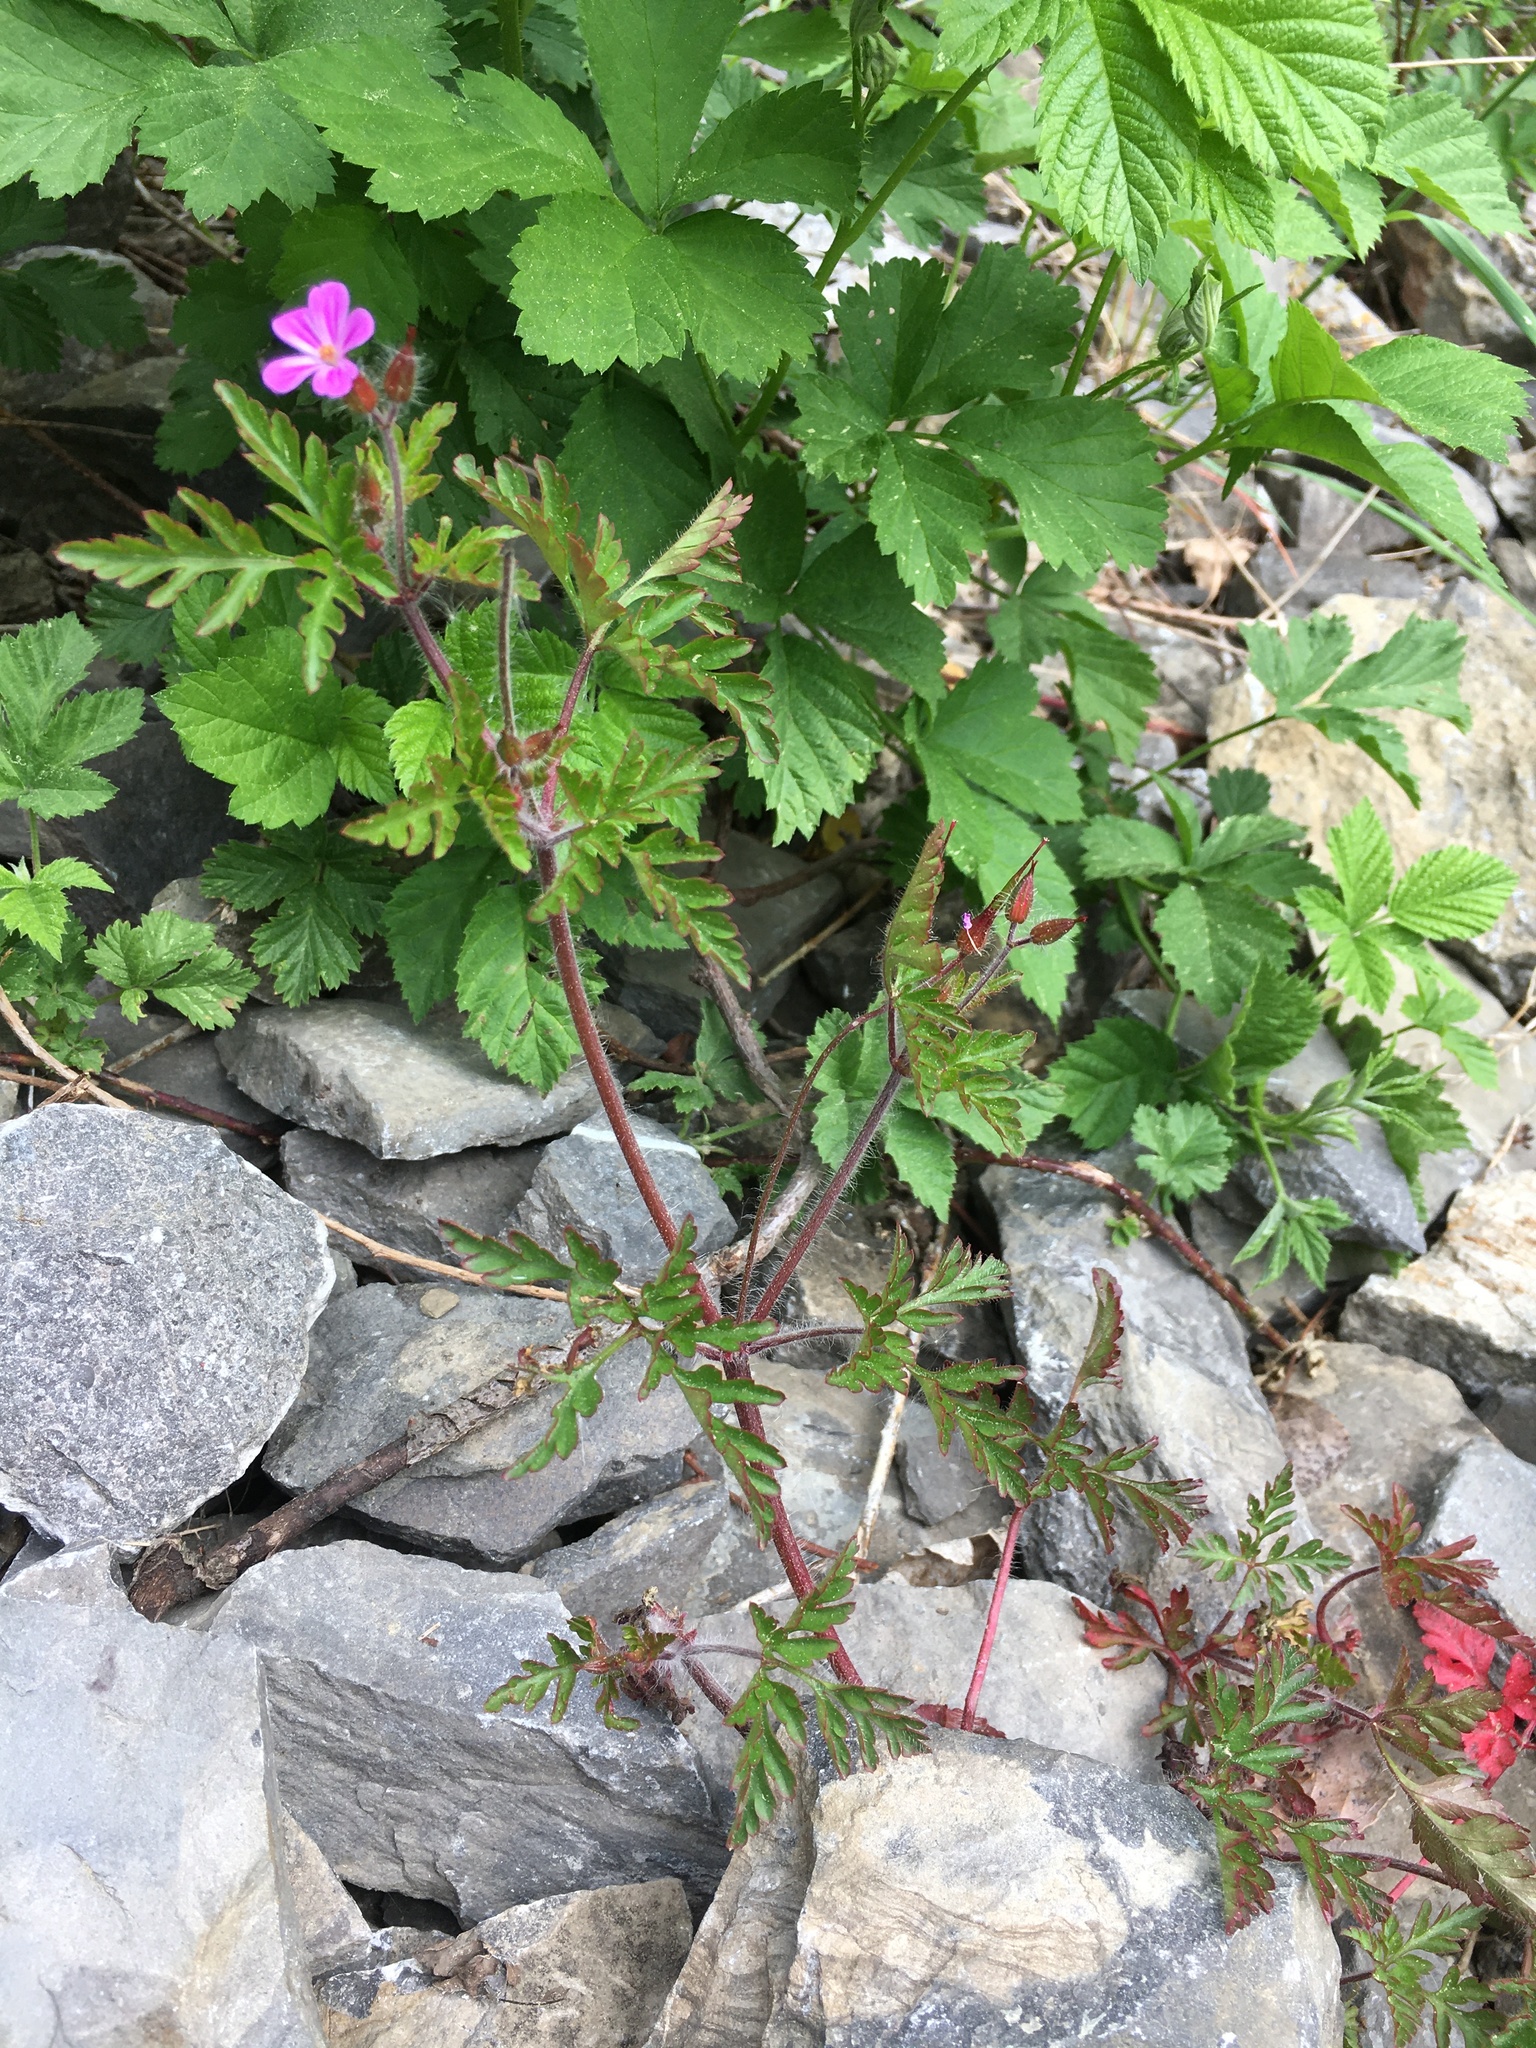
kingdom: Plantae
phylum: Tracheophyta
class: Magnoliopsida
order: Geraniales
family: Geraniaceae
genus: Geranium
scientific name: Geranium robertianum
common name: Herb-robert
